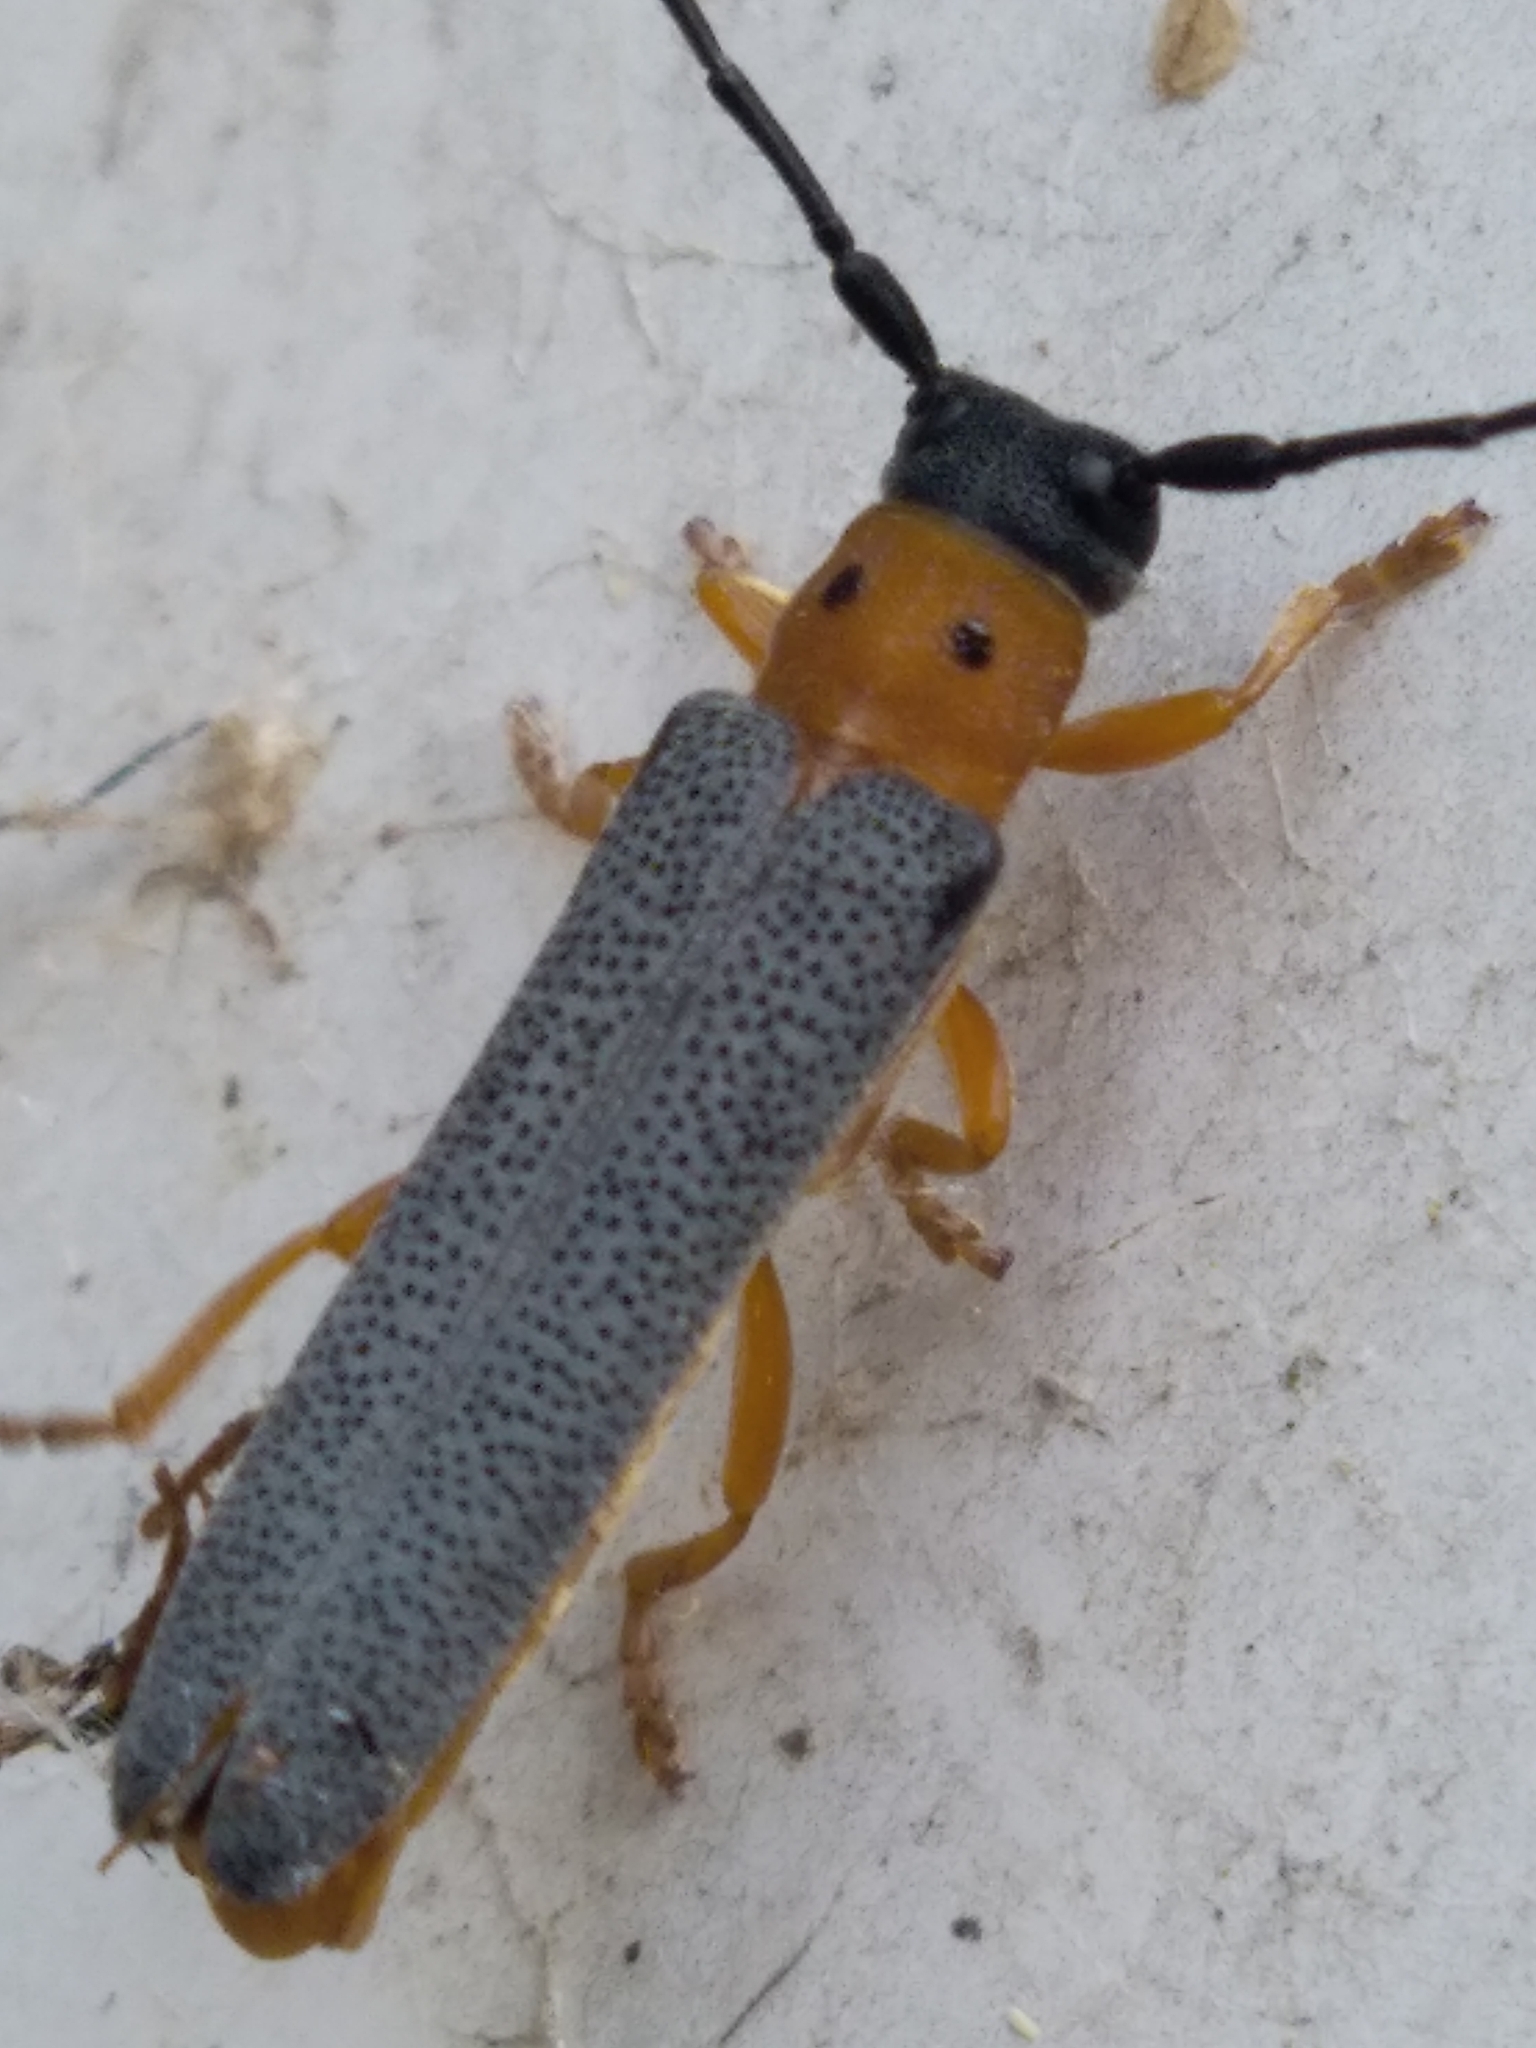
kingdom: Animalia
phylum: Arthropoda
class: Insecta
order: Coleoptera
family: Cerambycidae
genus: Oberea
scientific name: Oberea oculata
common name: Eyed longhorn beetle
